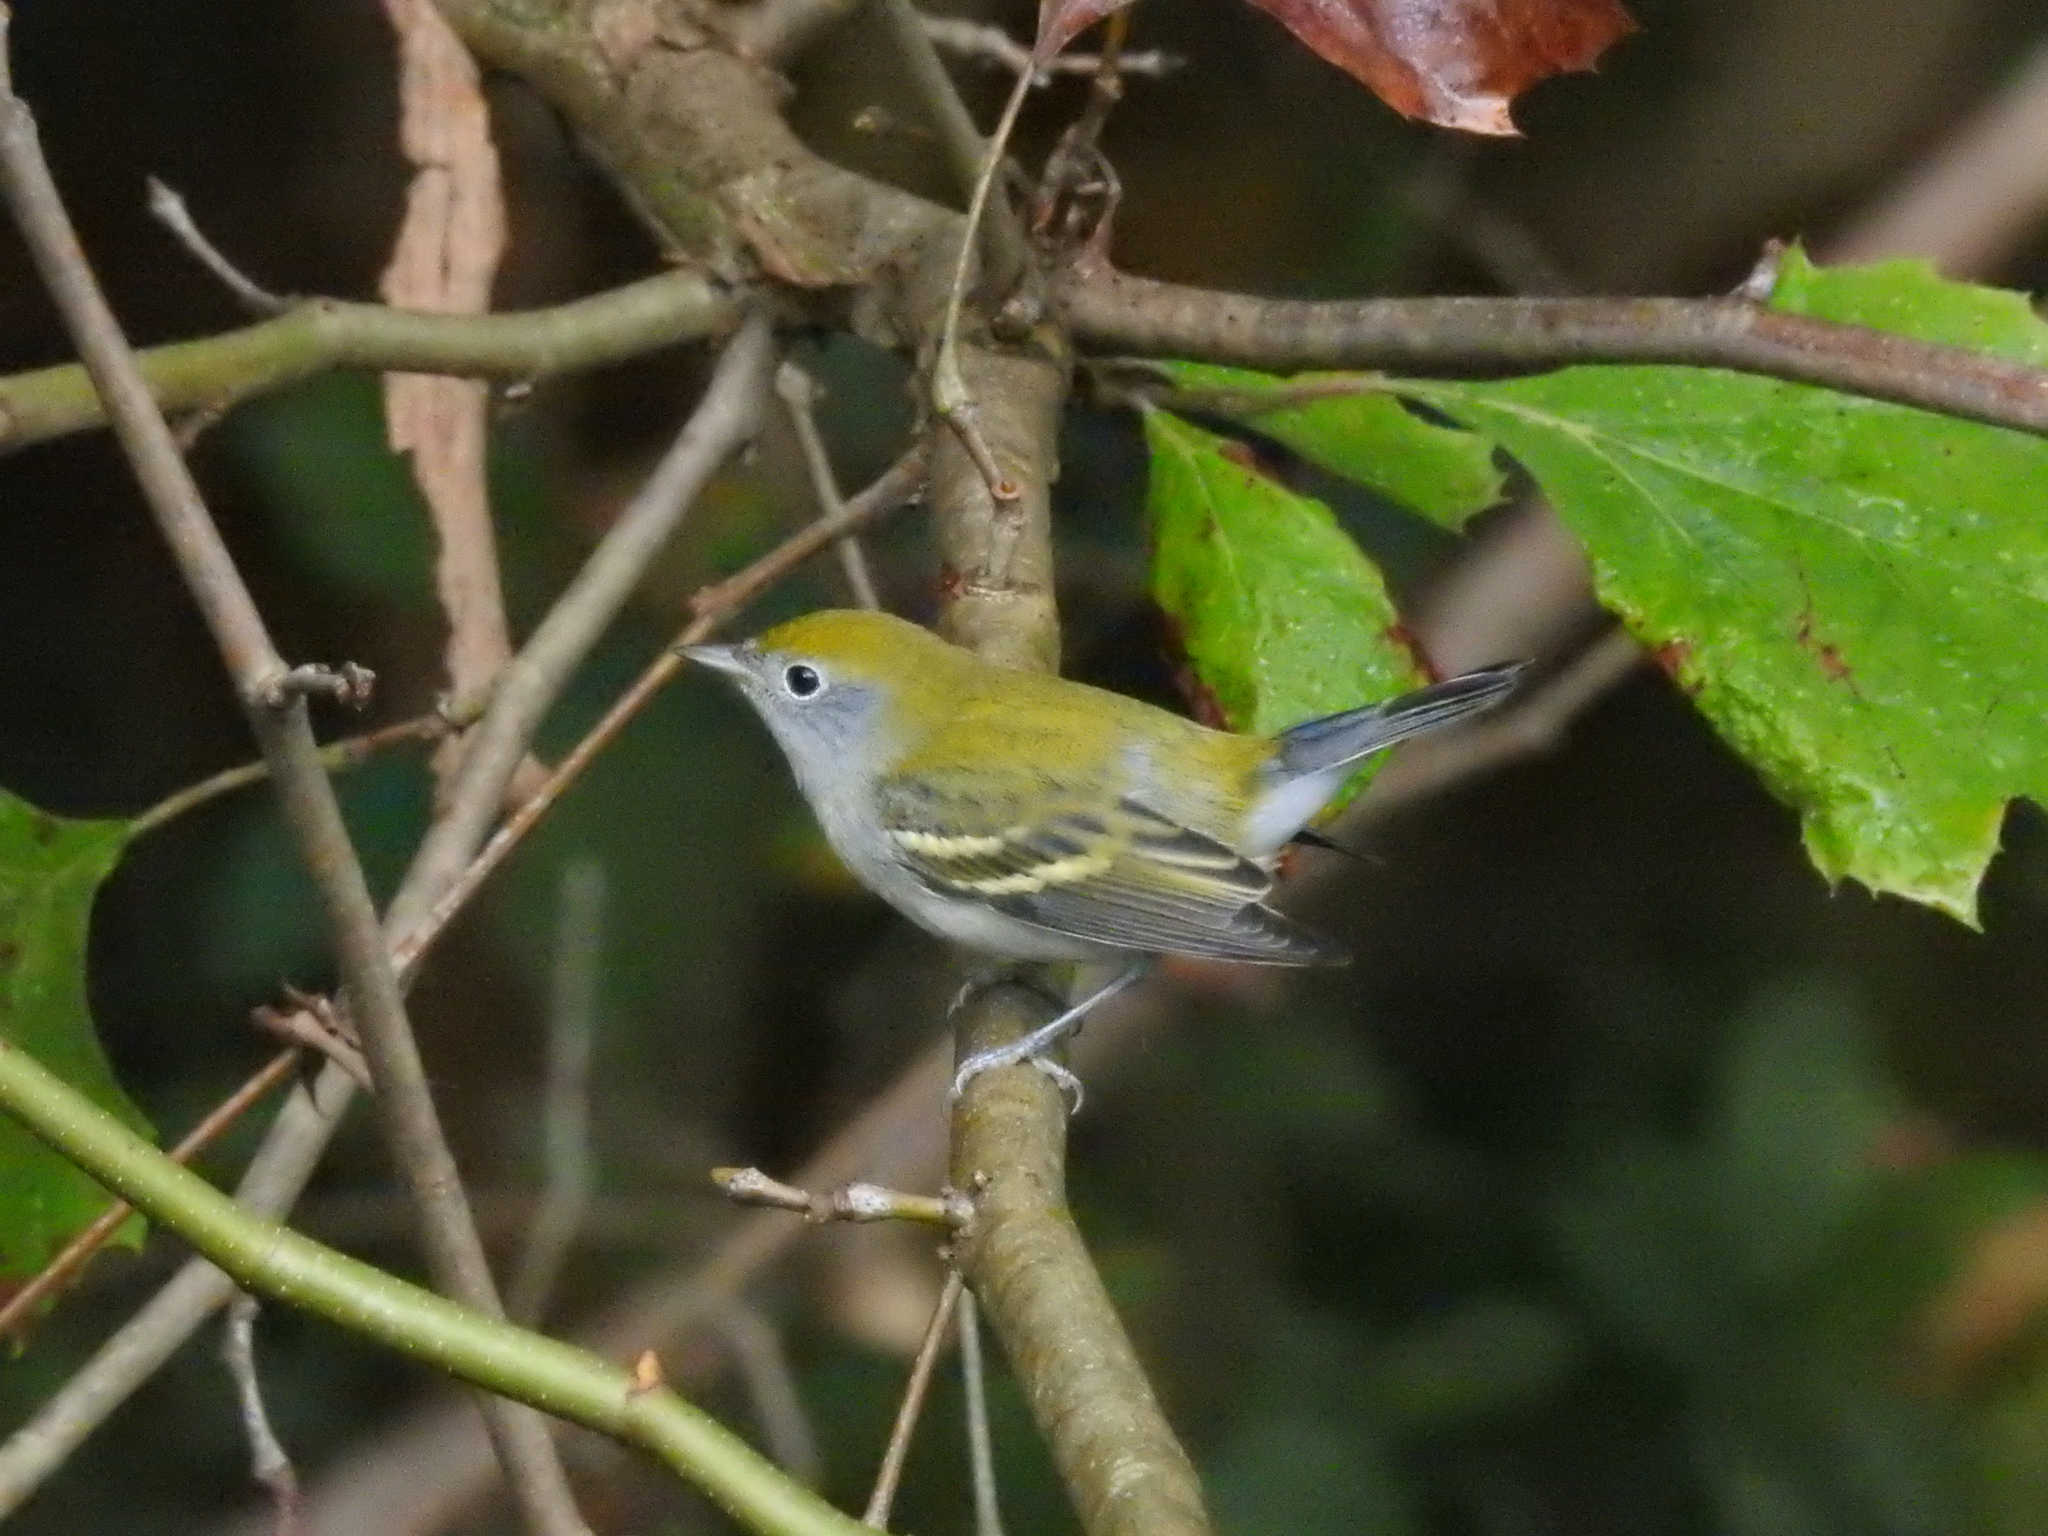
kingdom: Animalia
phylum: Chordata
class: Aves
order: Passeriformes
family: Parulidae
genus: Setophaga
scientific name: Setophaga pensylvanica
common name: Chestnut-sided warbler
